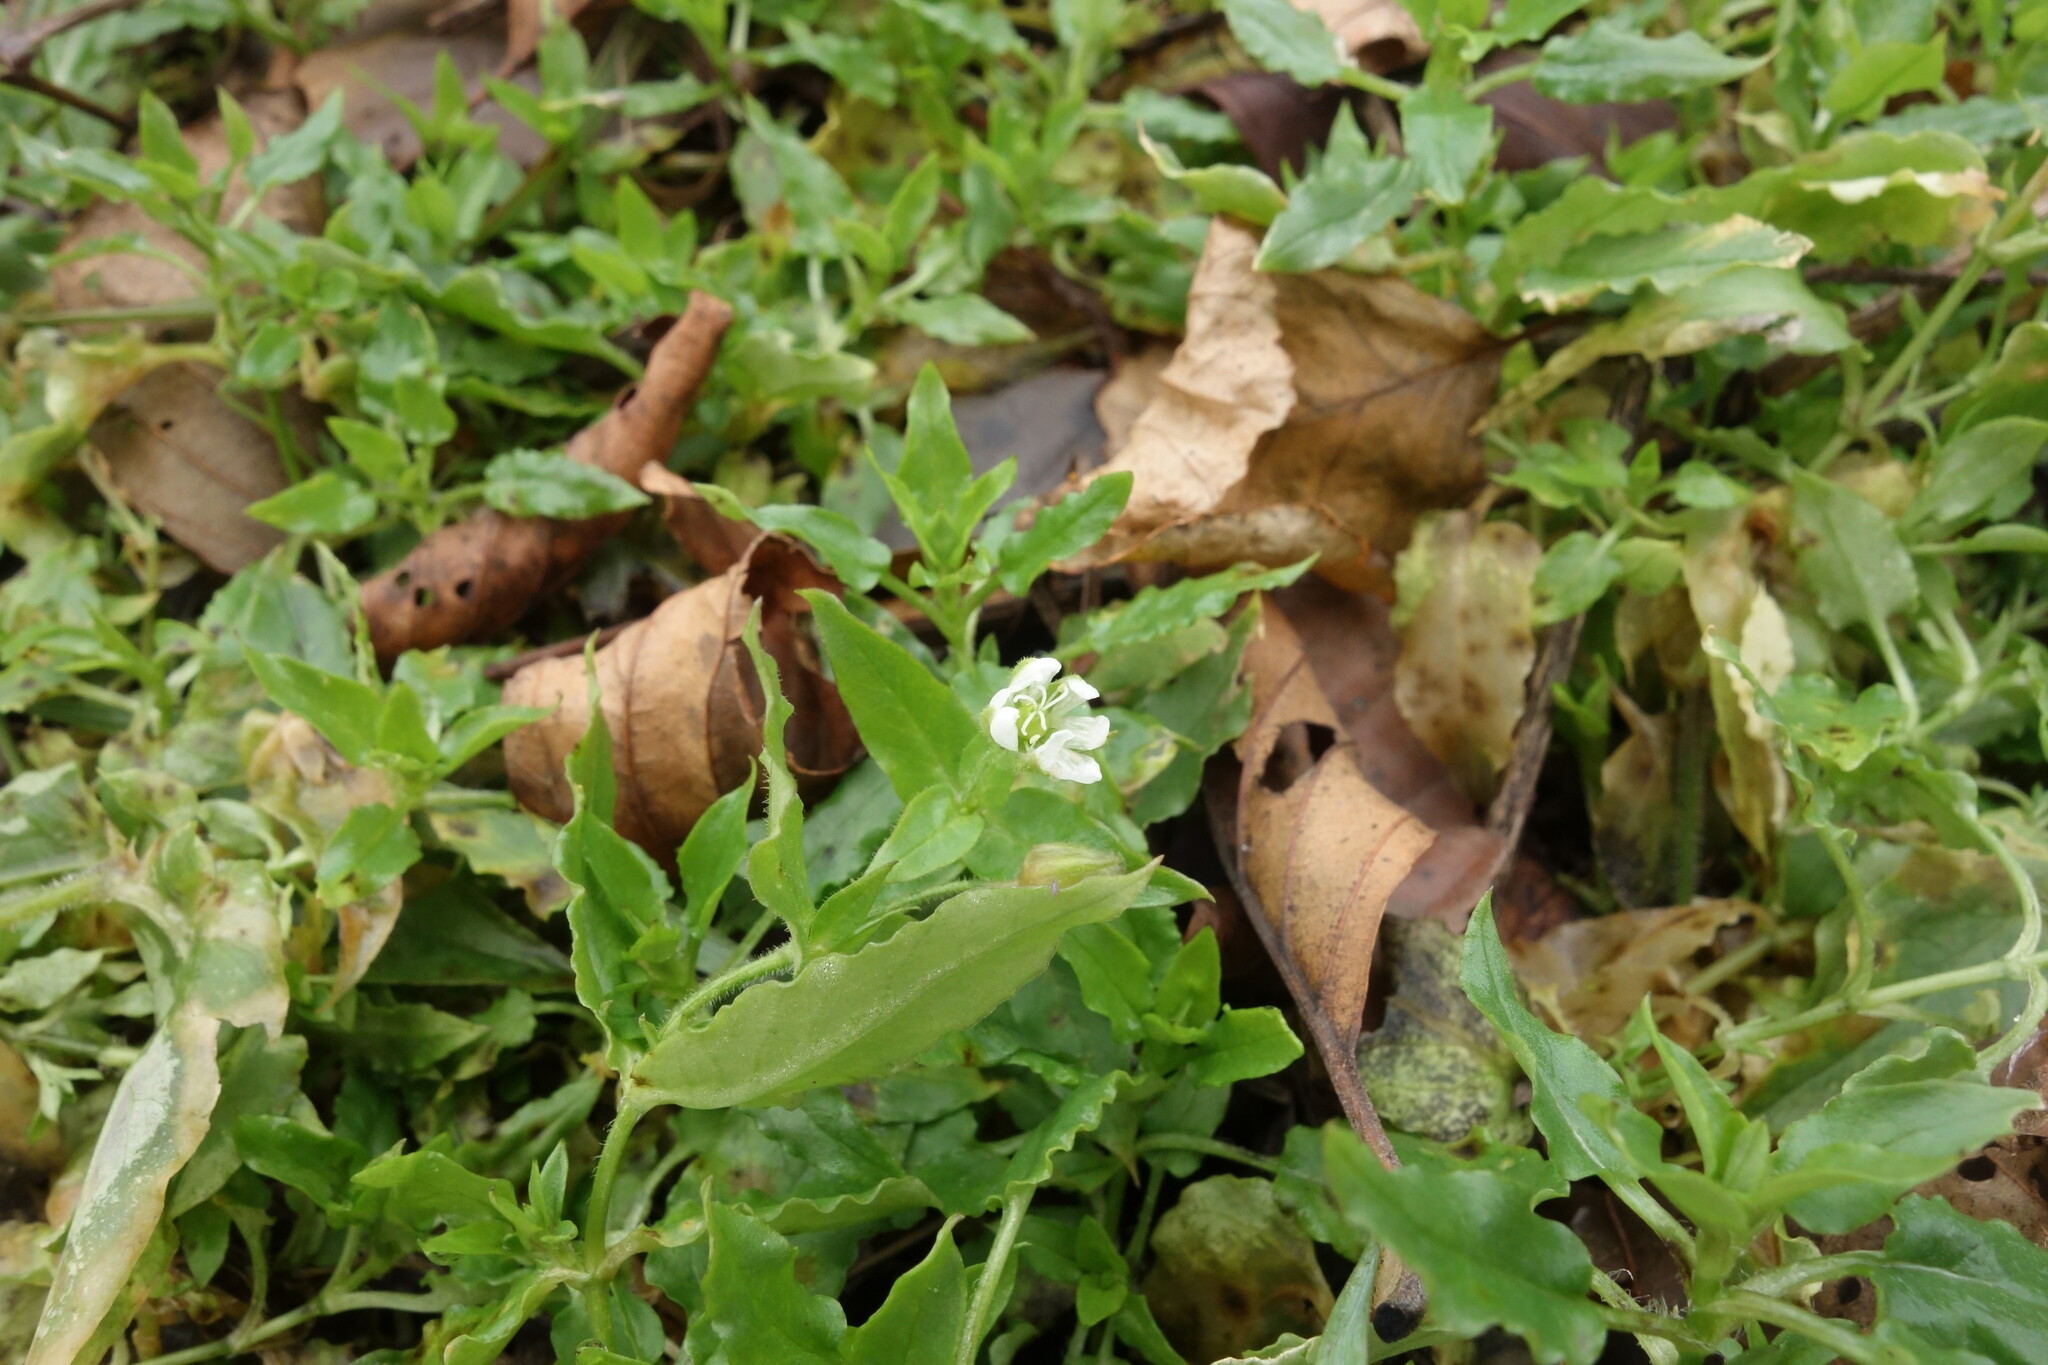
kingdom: Plantae
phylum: Tracheophyta
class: Magnoliopsida
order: Caryophyllales
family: Caryophyllaceae
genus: Stellaria
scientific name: Stellaria aquatica
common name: Water chickweed
